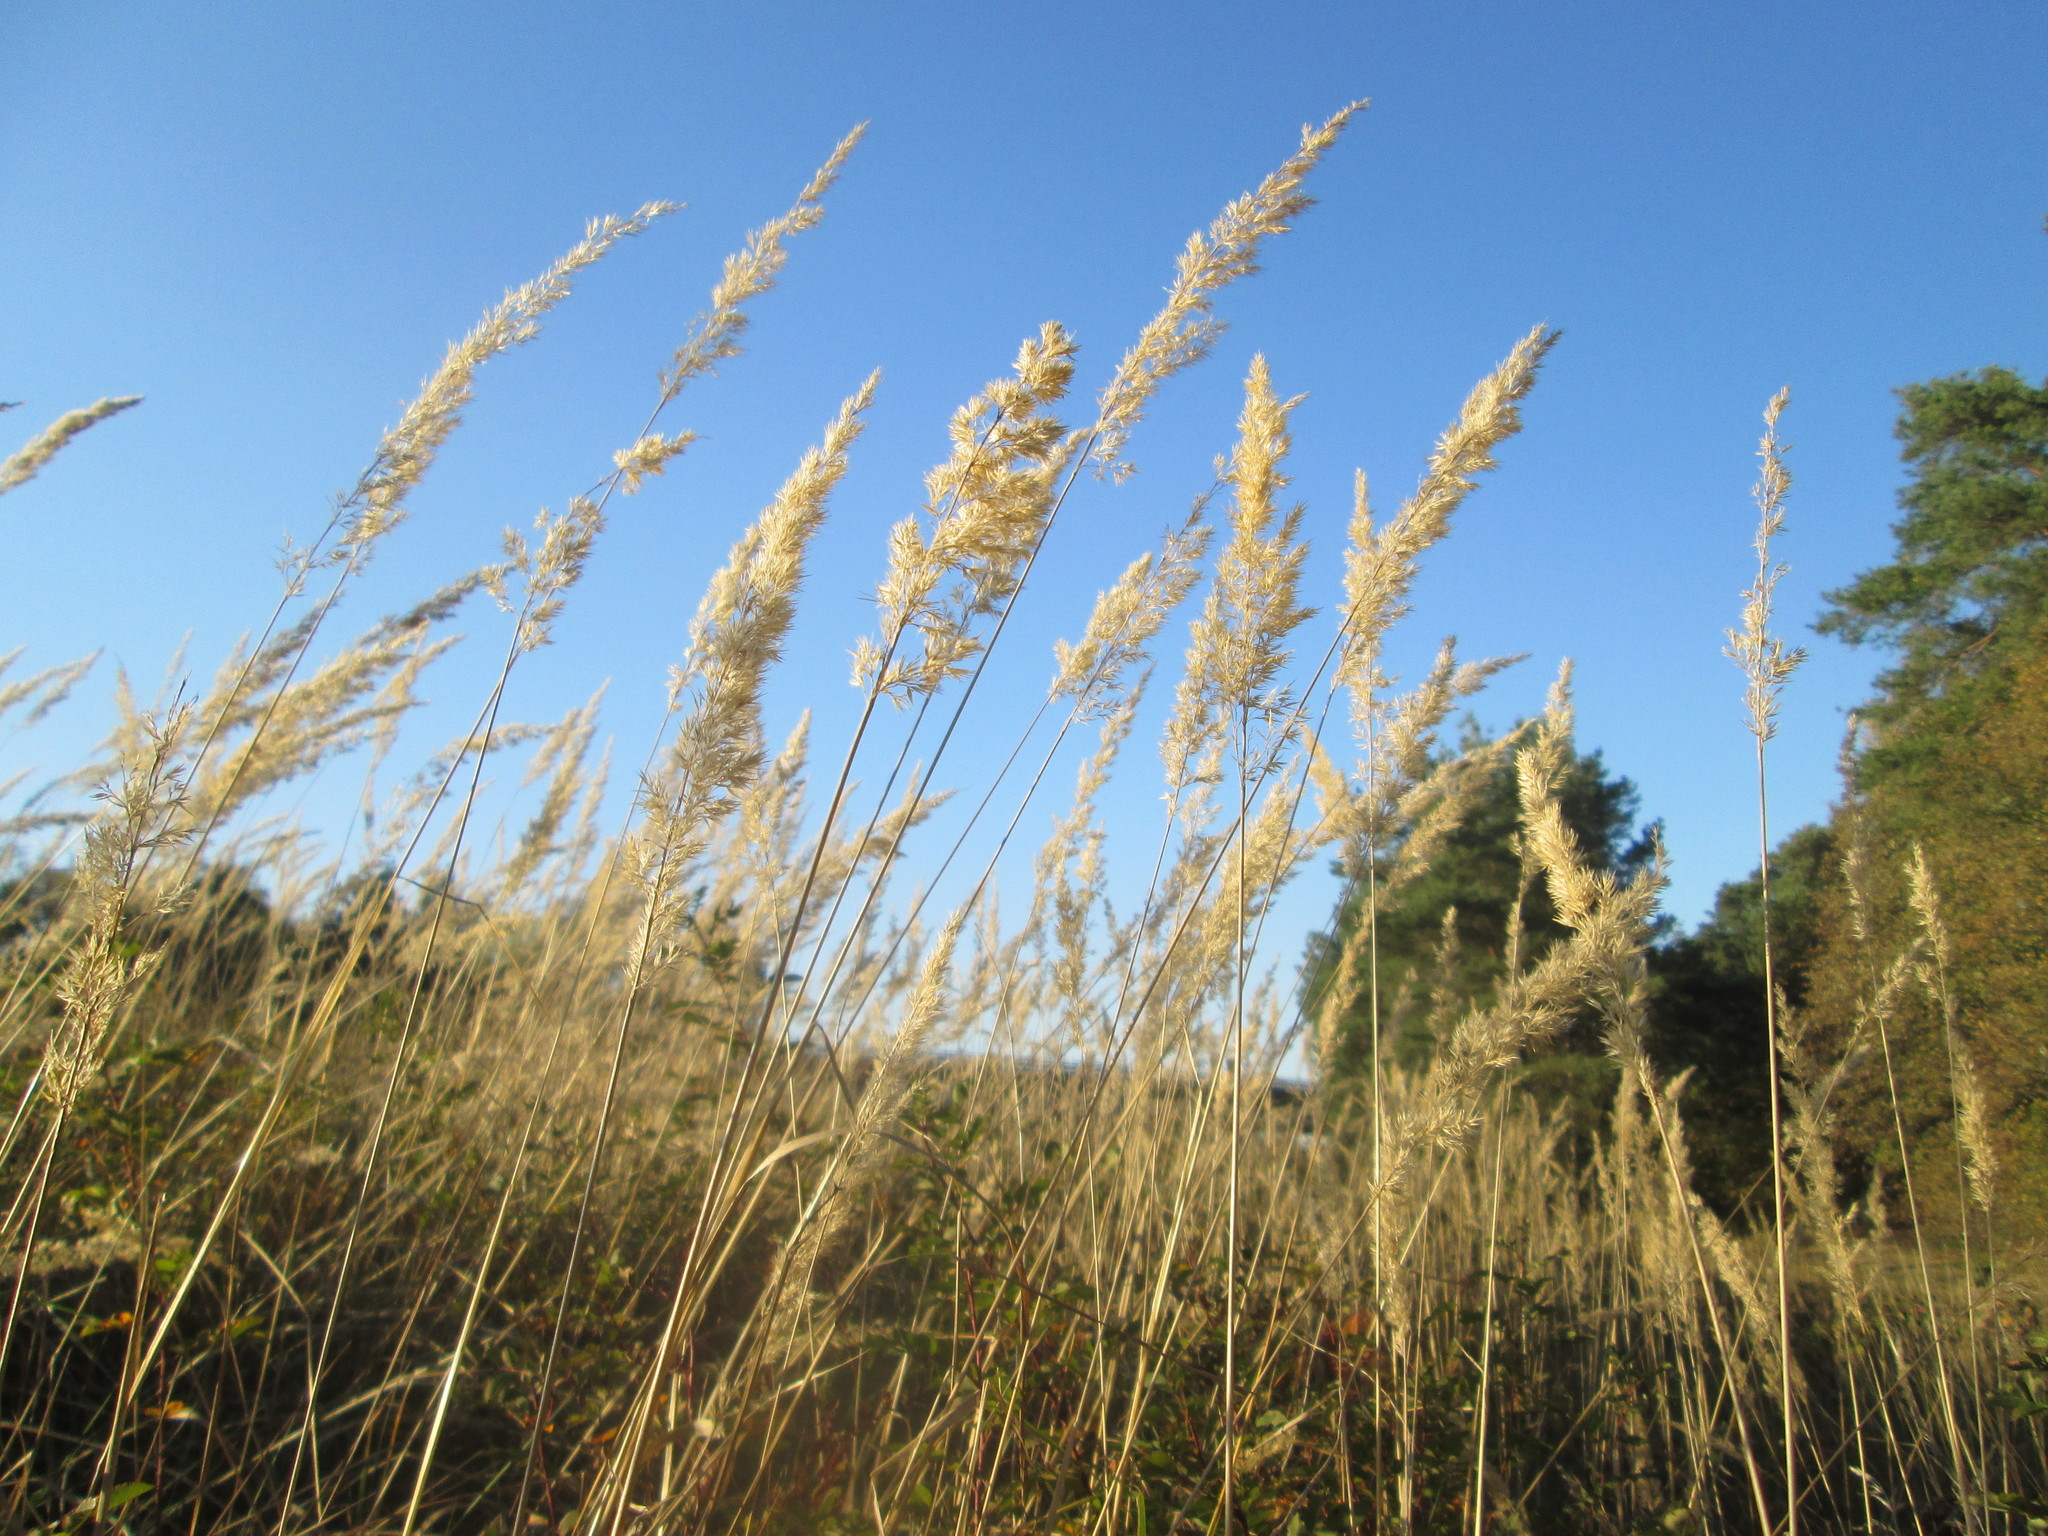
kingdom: Plantae
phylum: Tracheophyta
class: Liliopsida
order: Poales
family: Poaceae
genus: Calamagrostis
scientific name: Calamagrostis epigejos
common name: Wood small-reed
